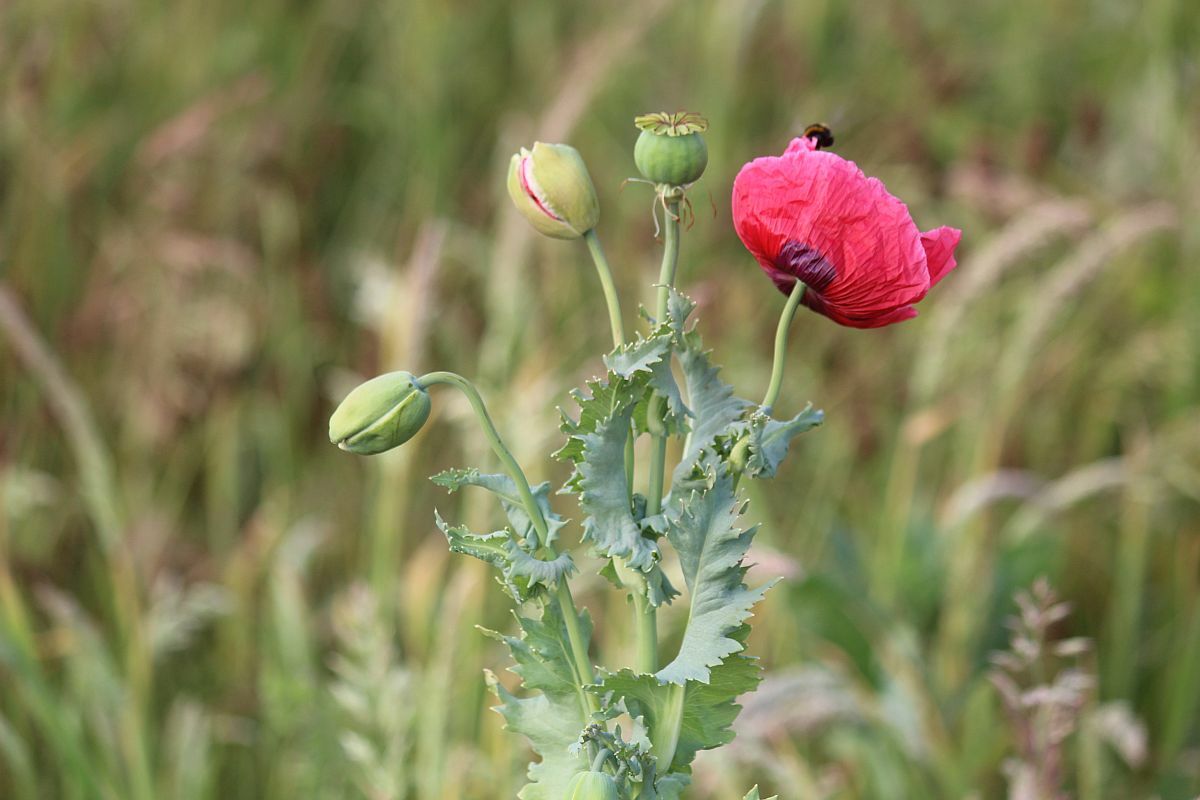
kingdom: Plantae
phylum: Tracheophyta
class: Magnoliopsida
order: Ranunculales
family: Papaveraceae
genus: Papaver
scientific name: Papaver somniferum
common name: Opium poppy
